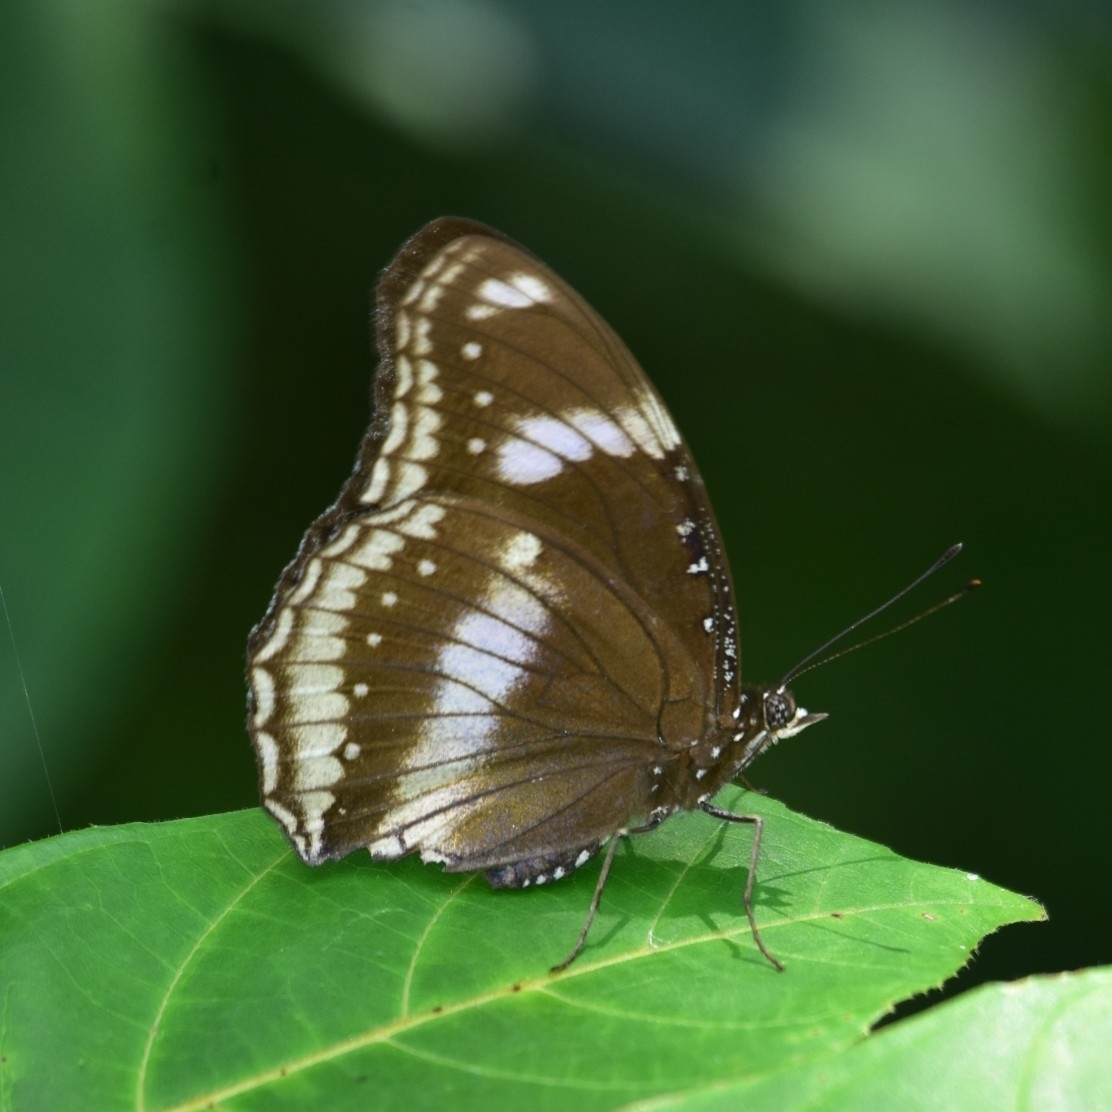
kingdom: Animalia
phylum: Arthropoda
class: Insecta
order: Lepidoptera
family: Nymphalidae
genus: Hypolimnas
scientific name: Hypolimnas bolina
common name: Great eggfly
